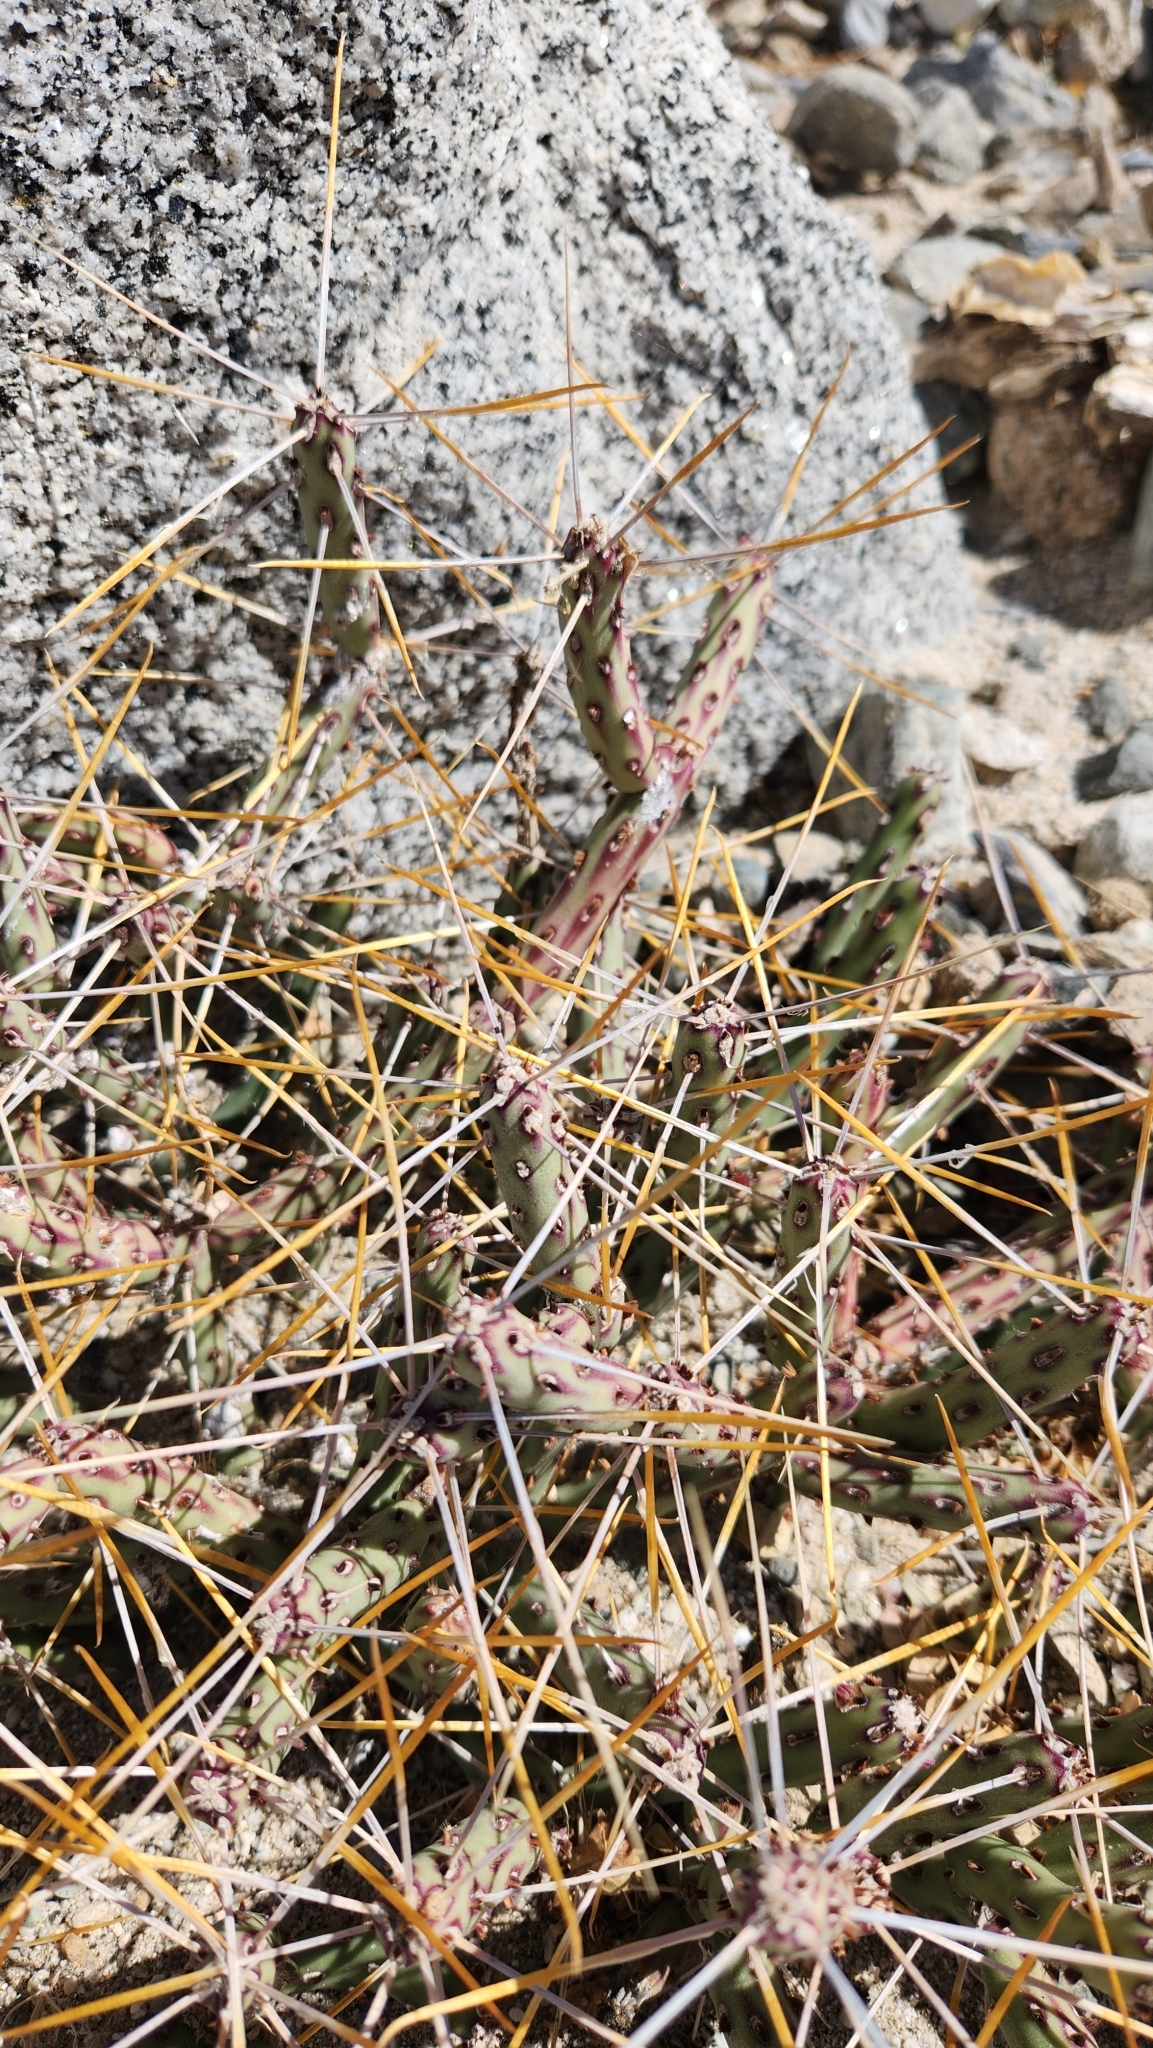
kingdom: Plantae
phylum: Tracheophyta
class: Magnoliopsida
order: Caryophyllales
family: Cactaceae
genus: Cylindropuntia
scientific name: Cylindropuntia tesajo
